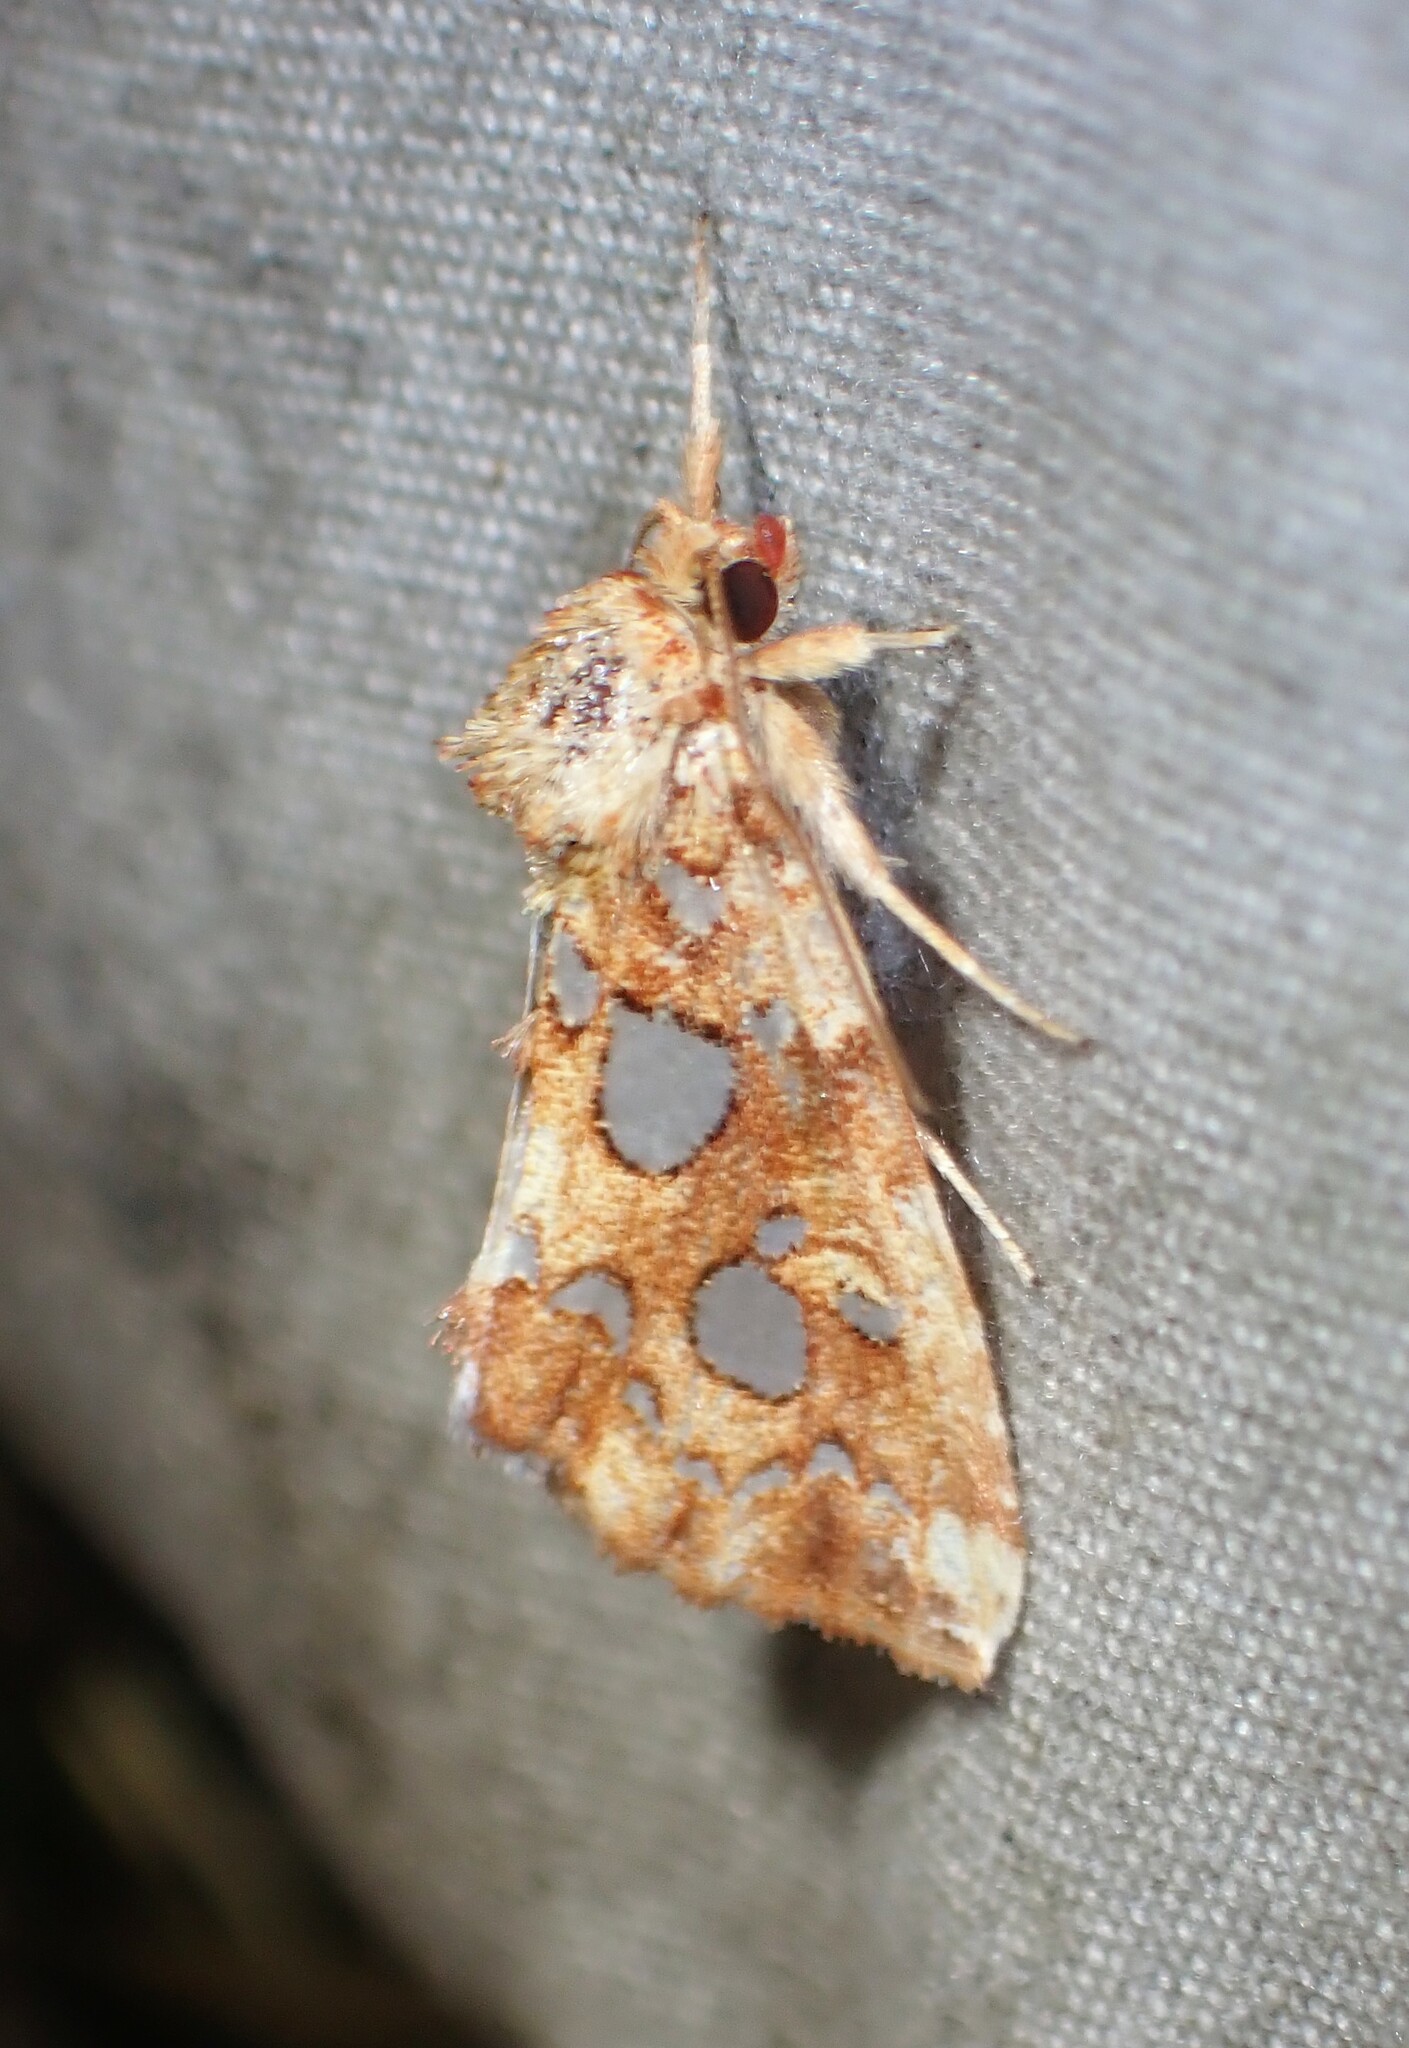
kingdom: Animalia
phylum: Arthropoda
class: Insecta
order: Lepidoptera
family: Noctuidae
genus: Callopistria
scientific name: Callopistria cordata
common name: Silver-spotted fern moth
